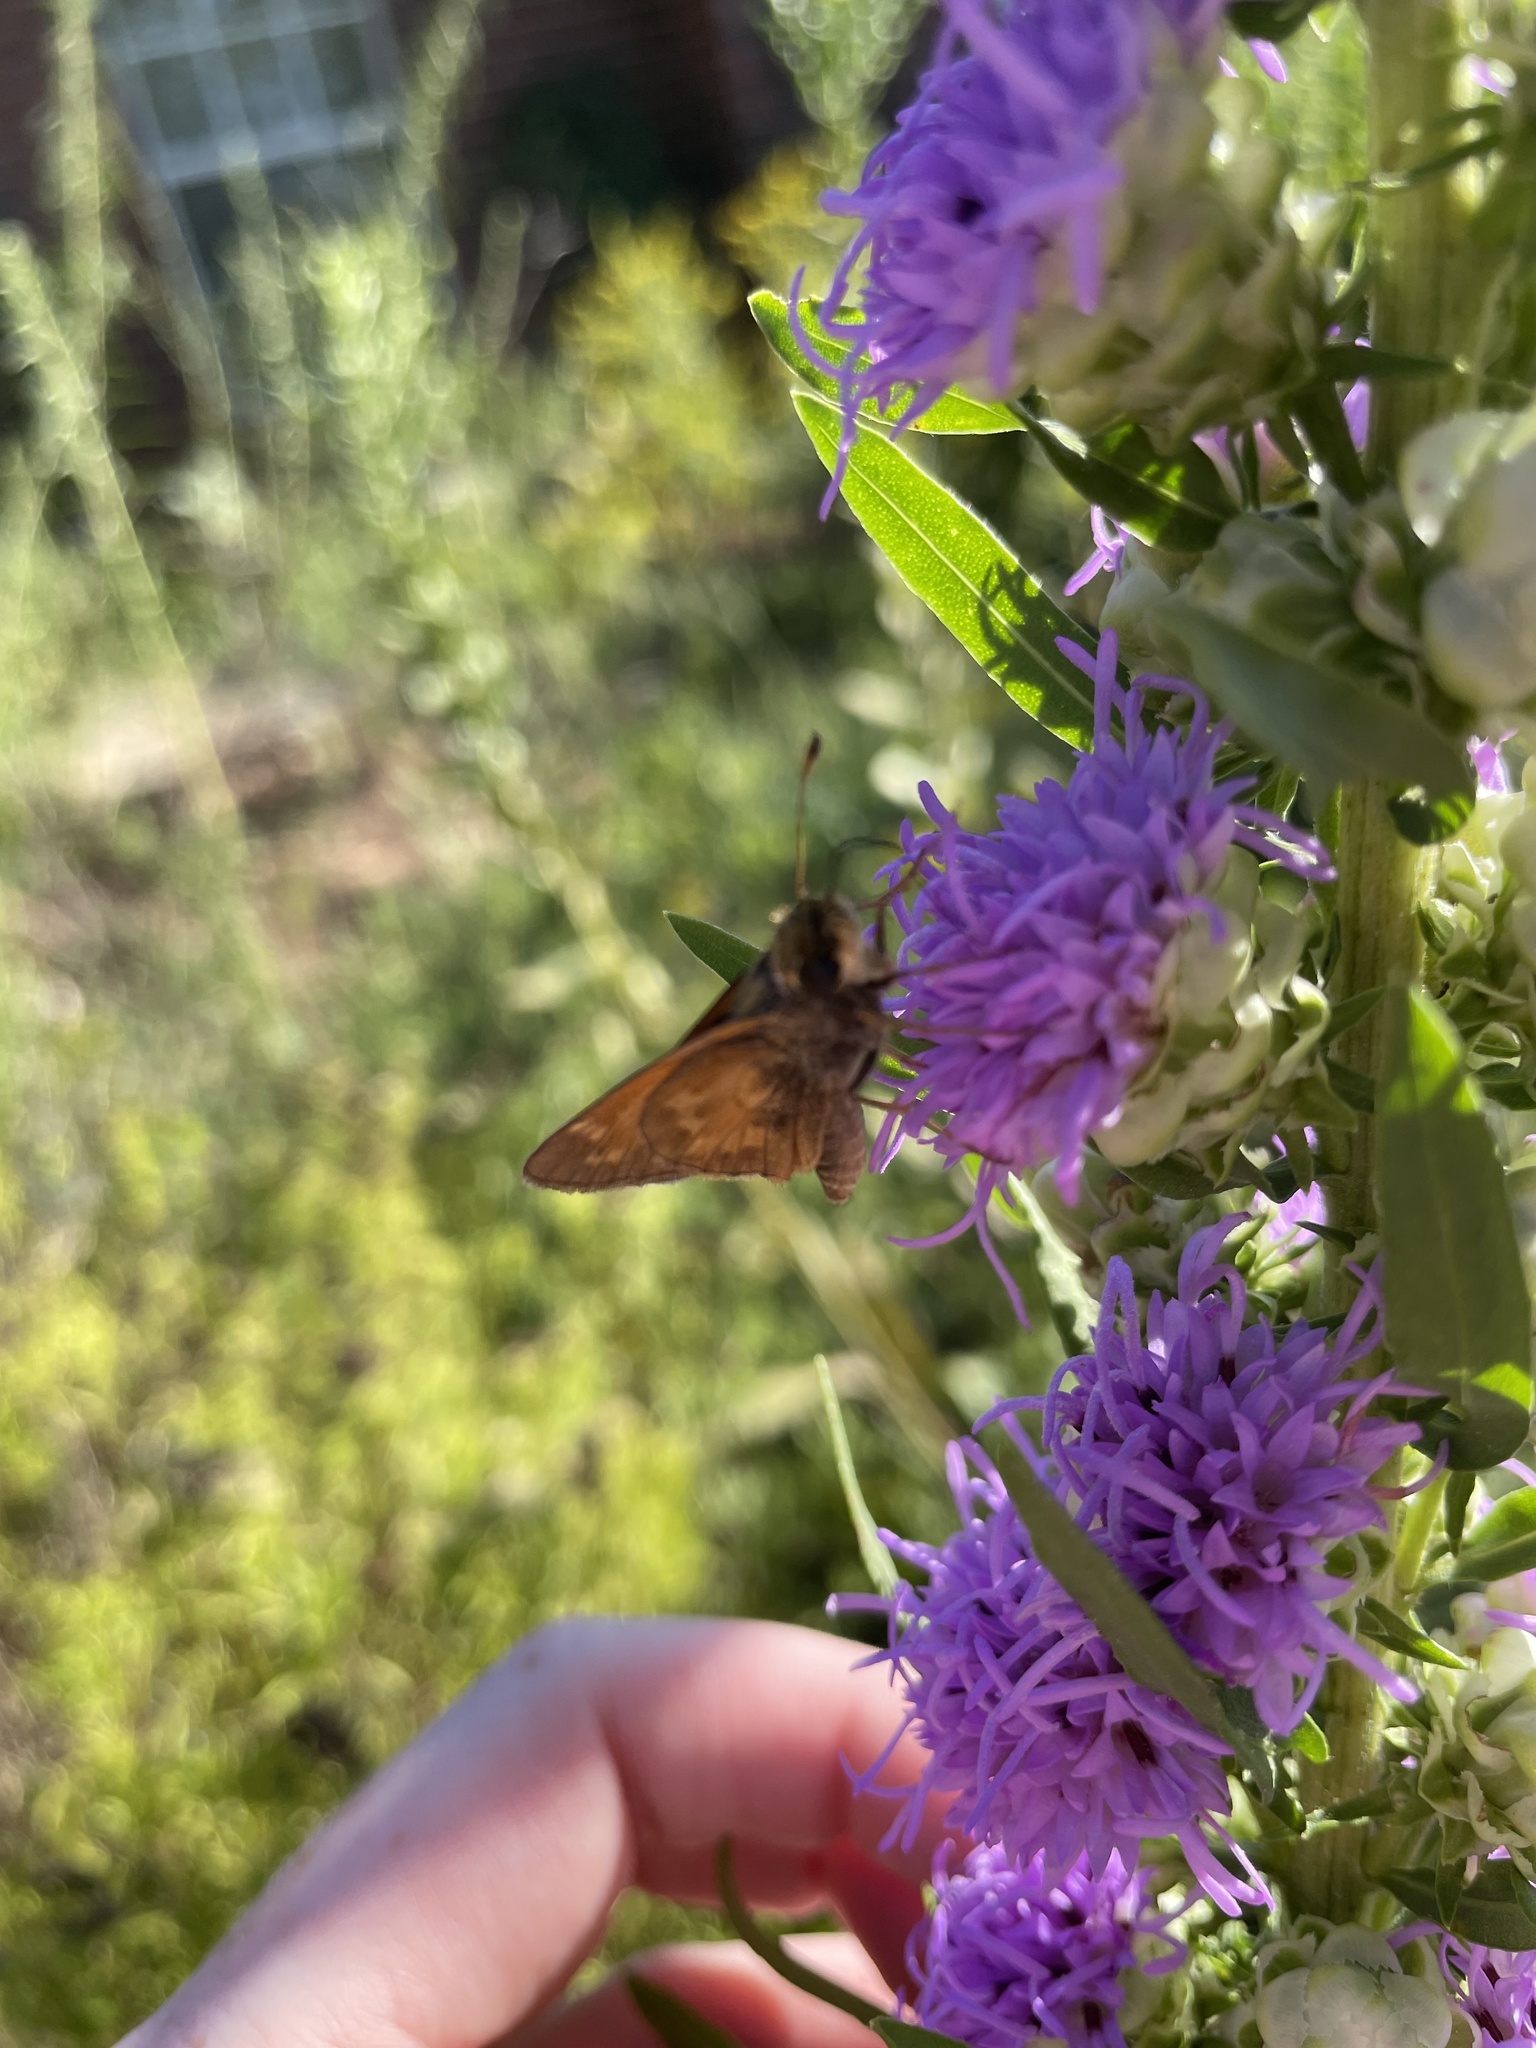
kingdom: Animalia
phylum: Arthropoda
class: Insecta
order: Lepidoptera
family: Hesperiidae
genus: Atalopedes
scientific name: Atalopedes
